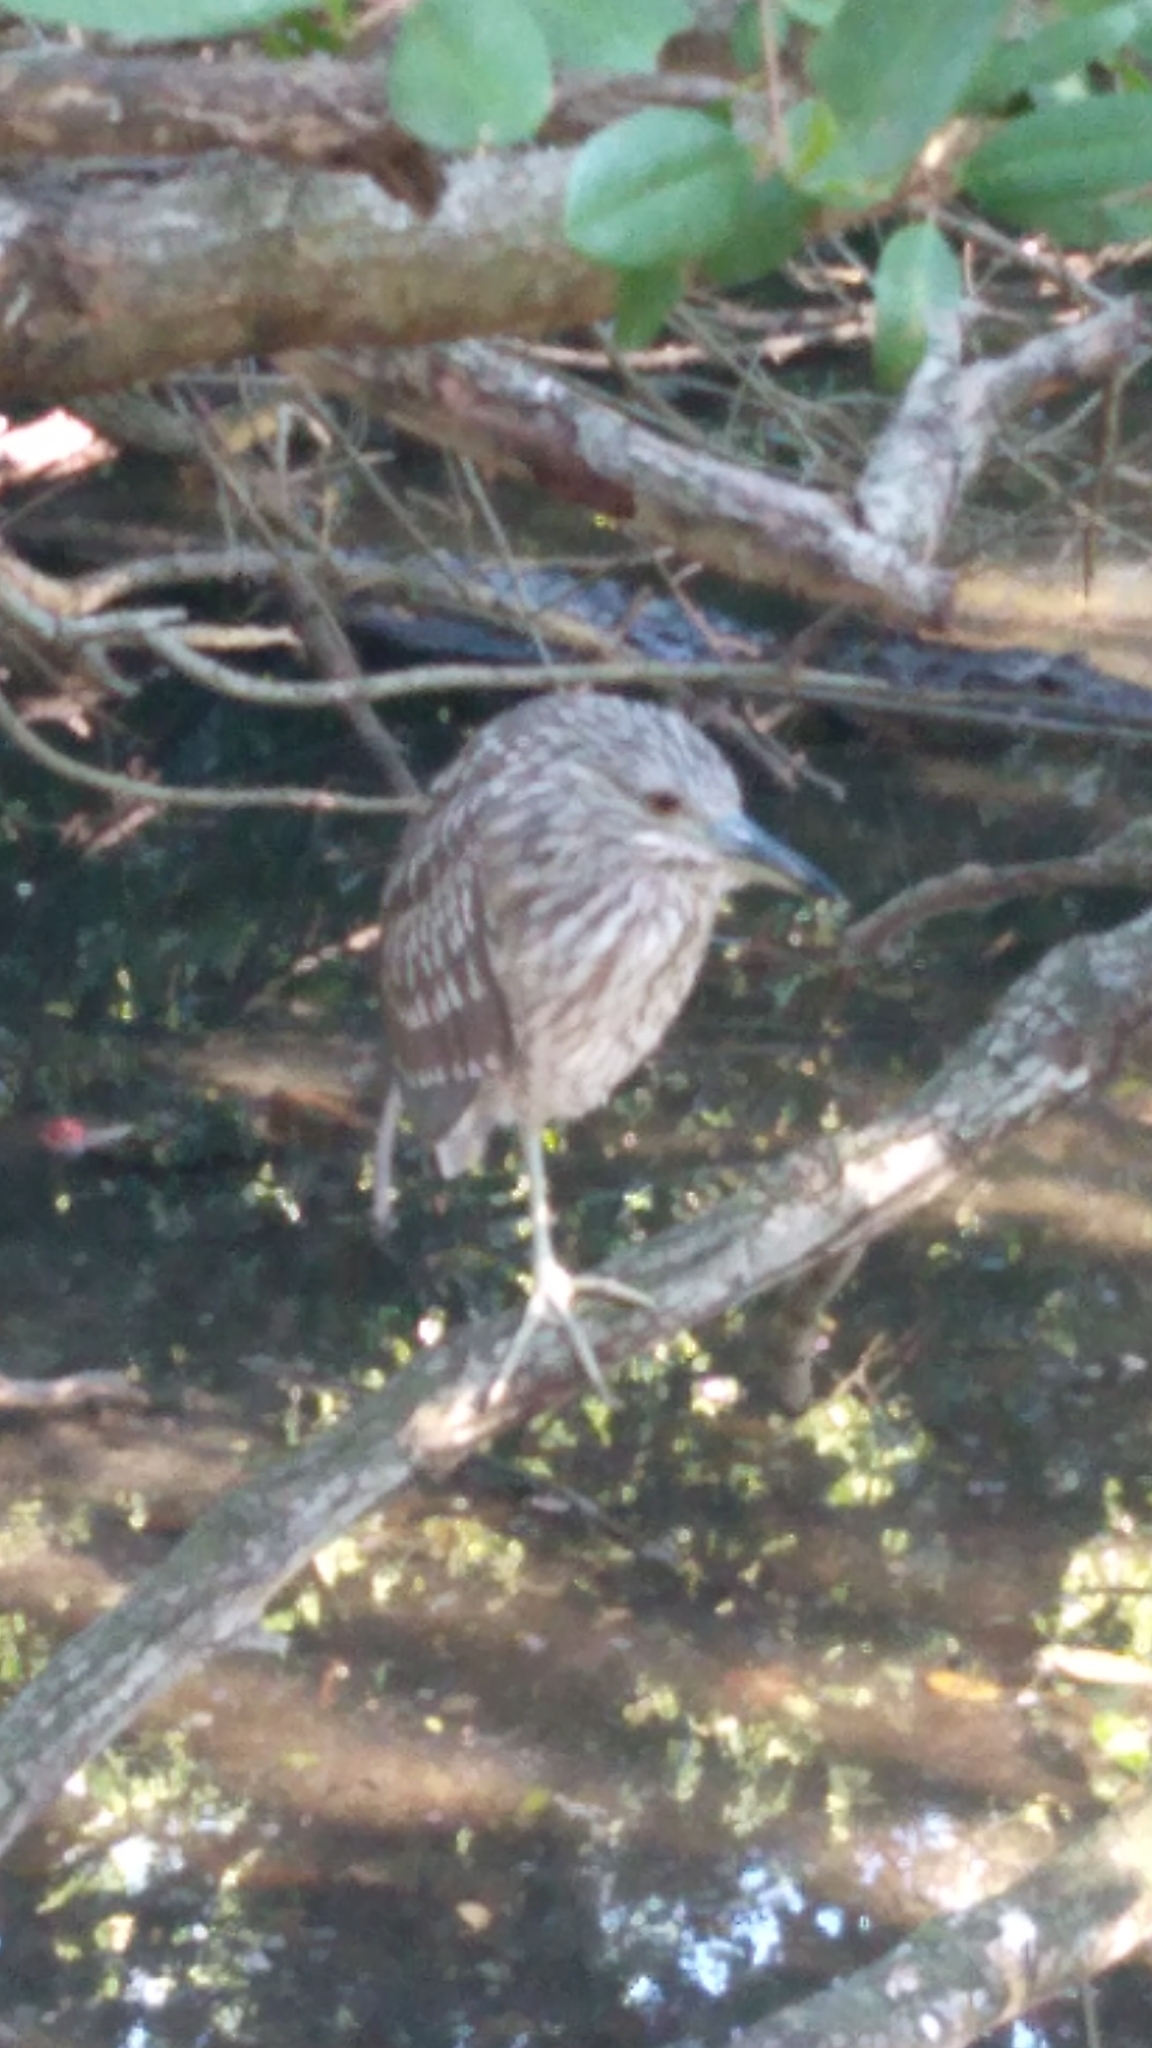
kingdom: Animalia
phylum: Chordata
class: Aves
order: Pelecaniformes
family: Ardeidae
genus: Nycticorax
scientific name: Nycticorax nycticorax
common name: Black-crowned night heron
